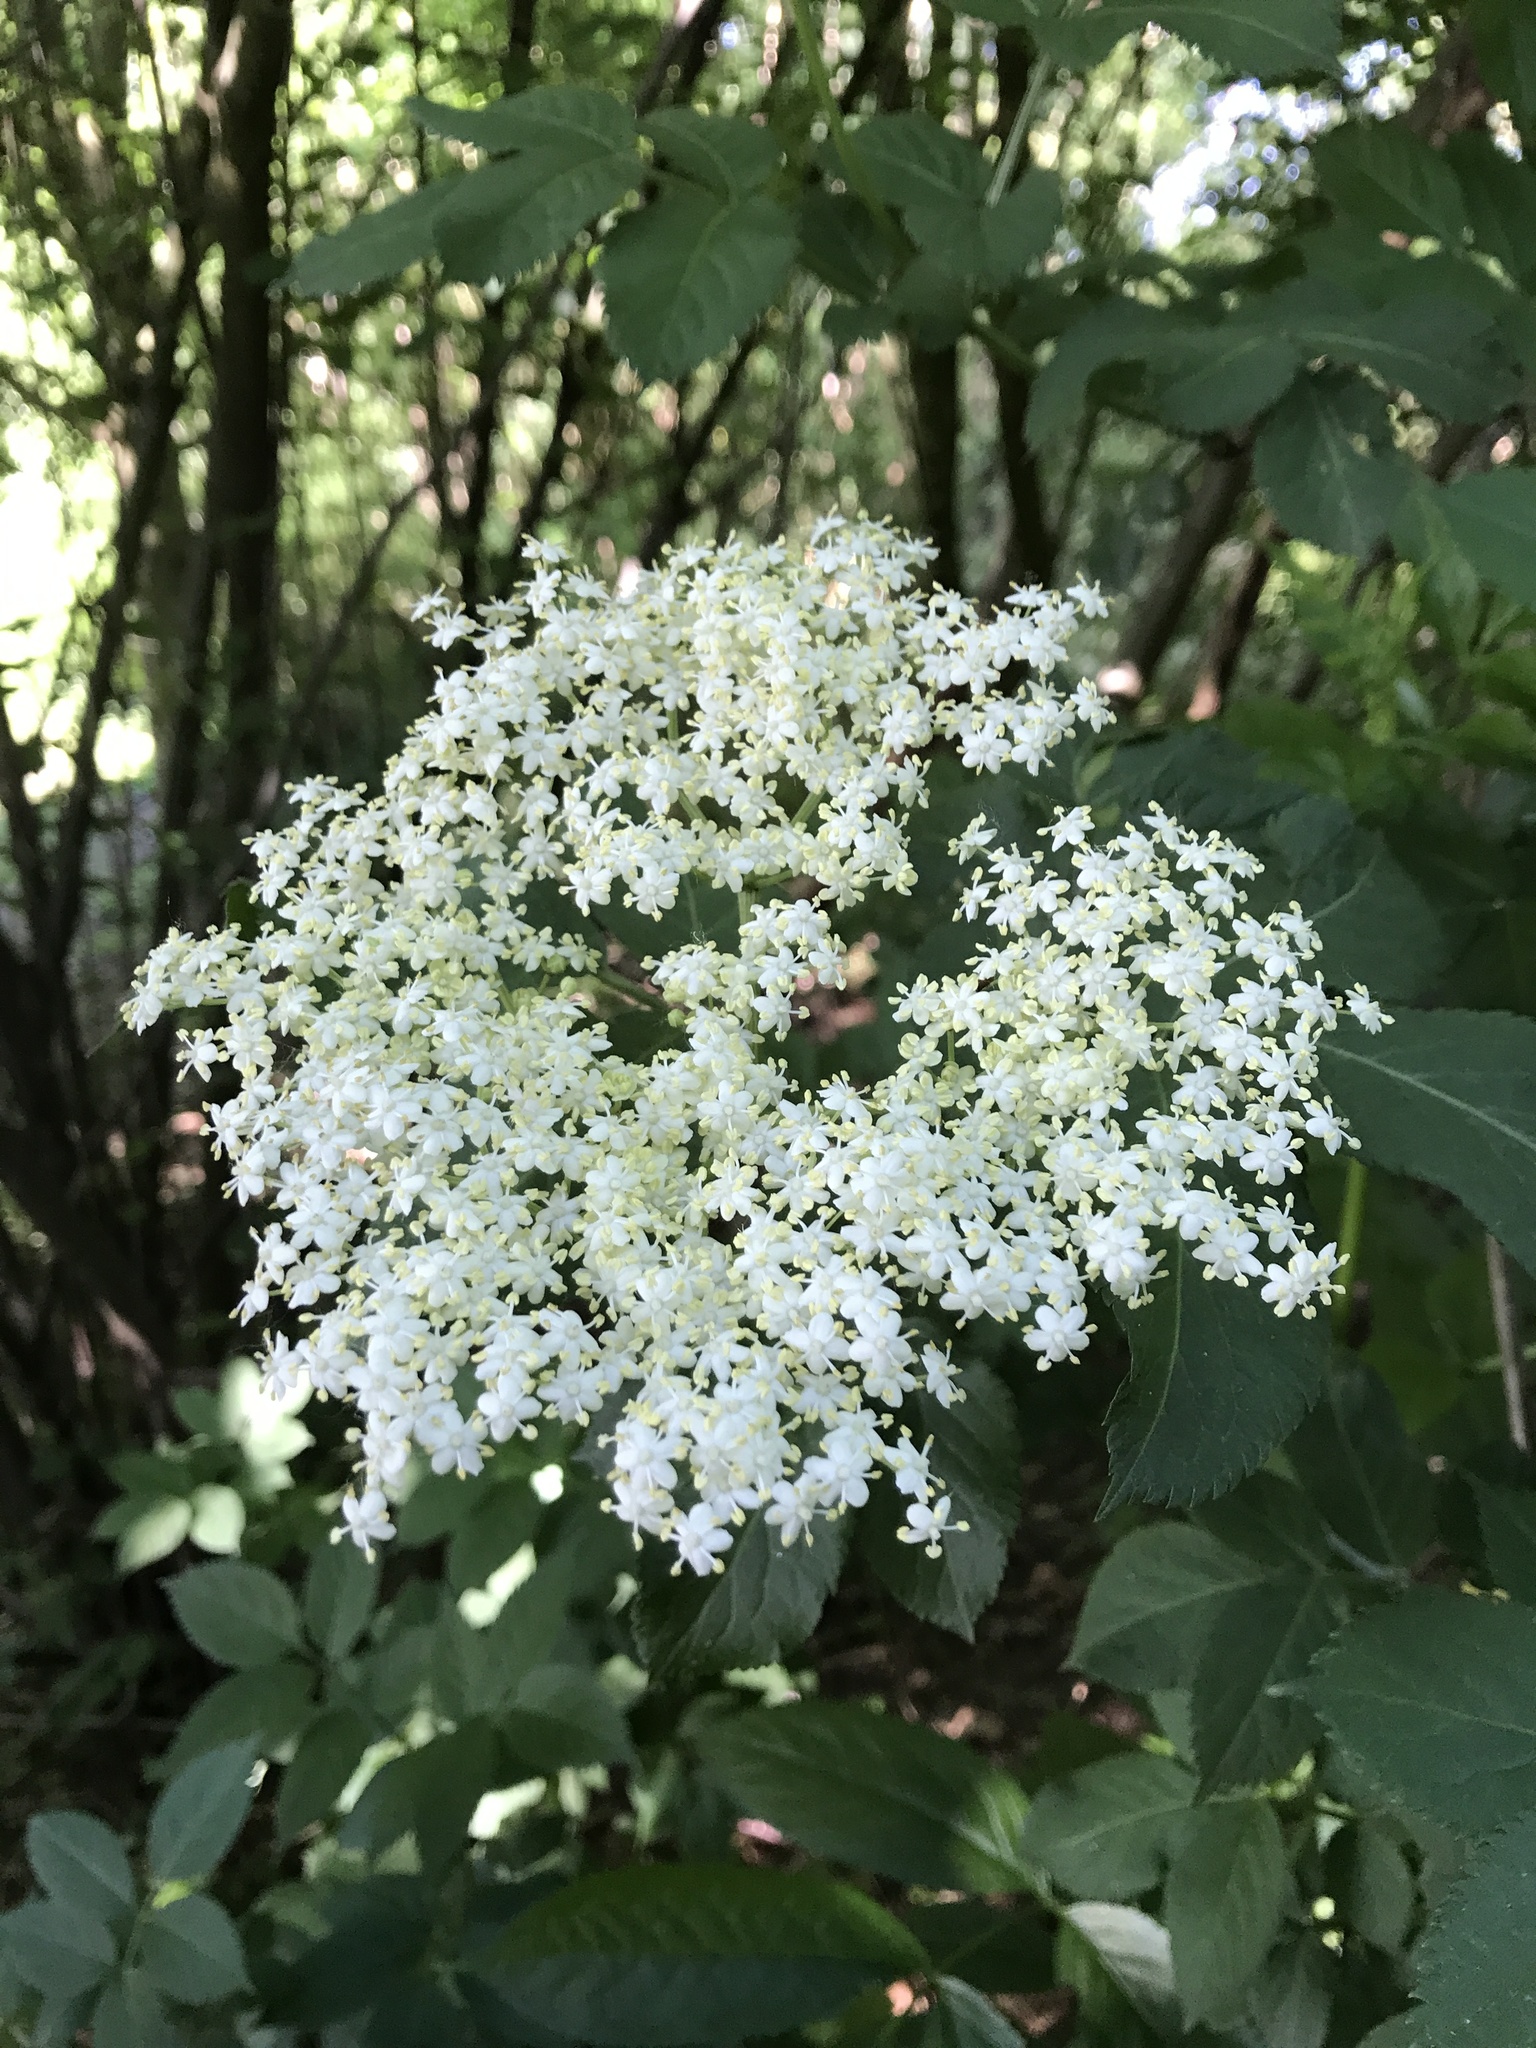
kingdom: Plantae
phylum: Tracheophyta
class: Magnoliopsida
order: Dipsacales
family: Viburnaceae
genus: Sambucus
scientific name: Sambucus nigra
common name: Elder
